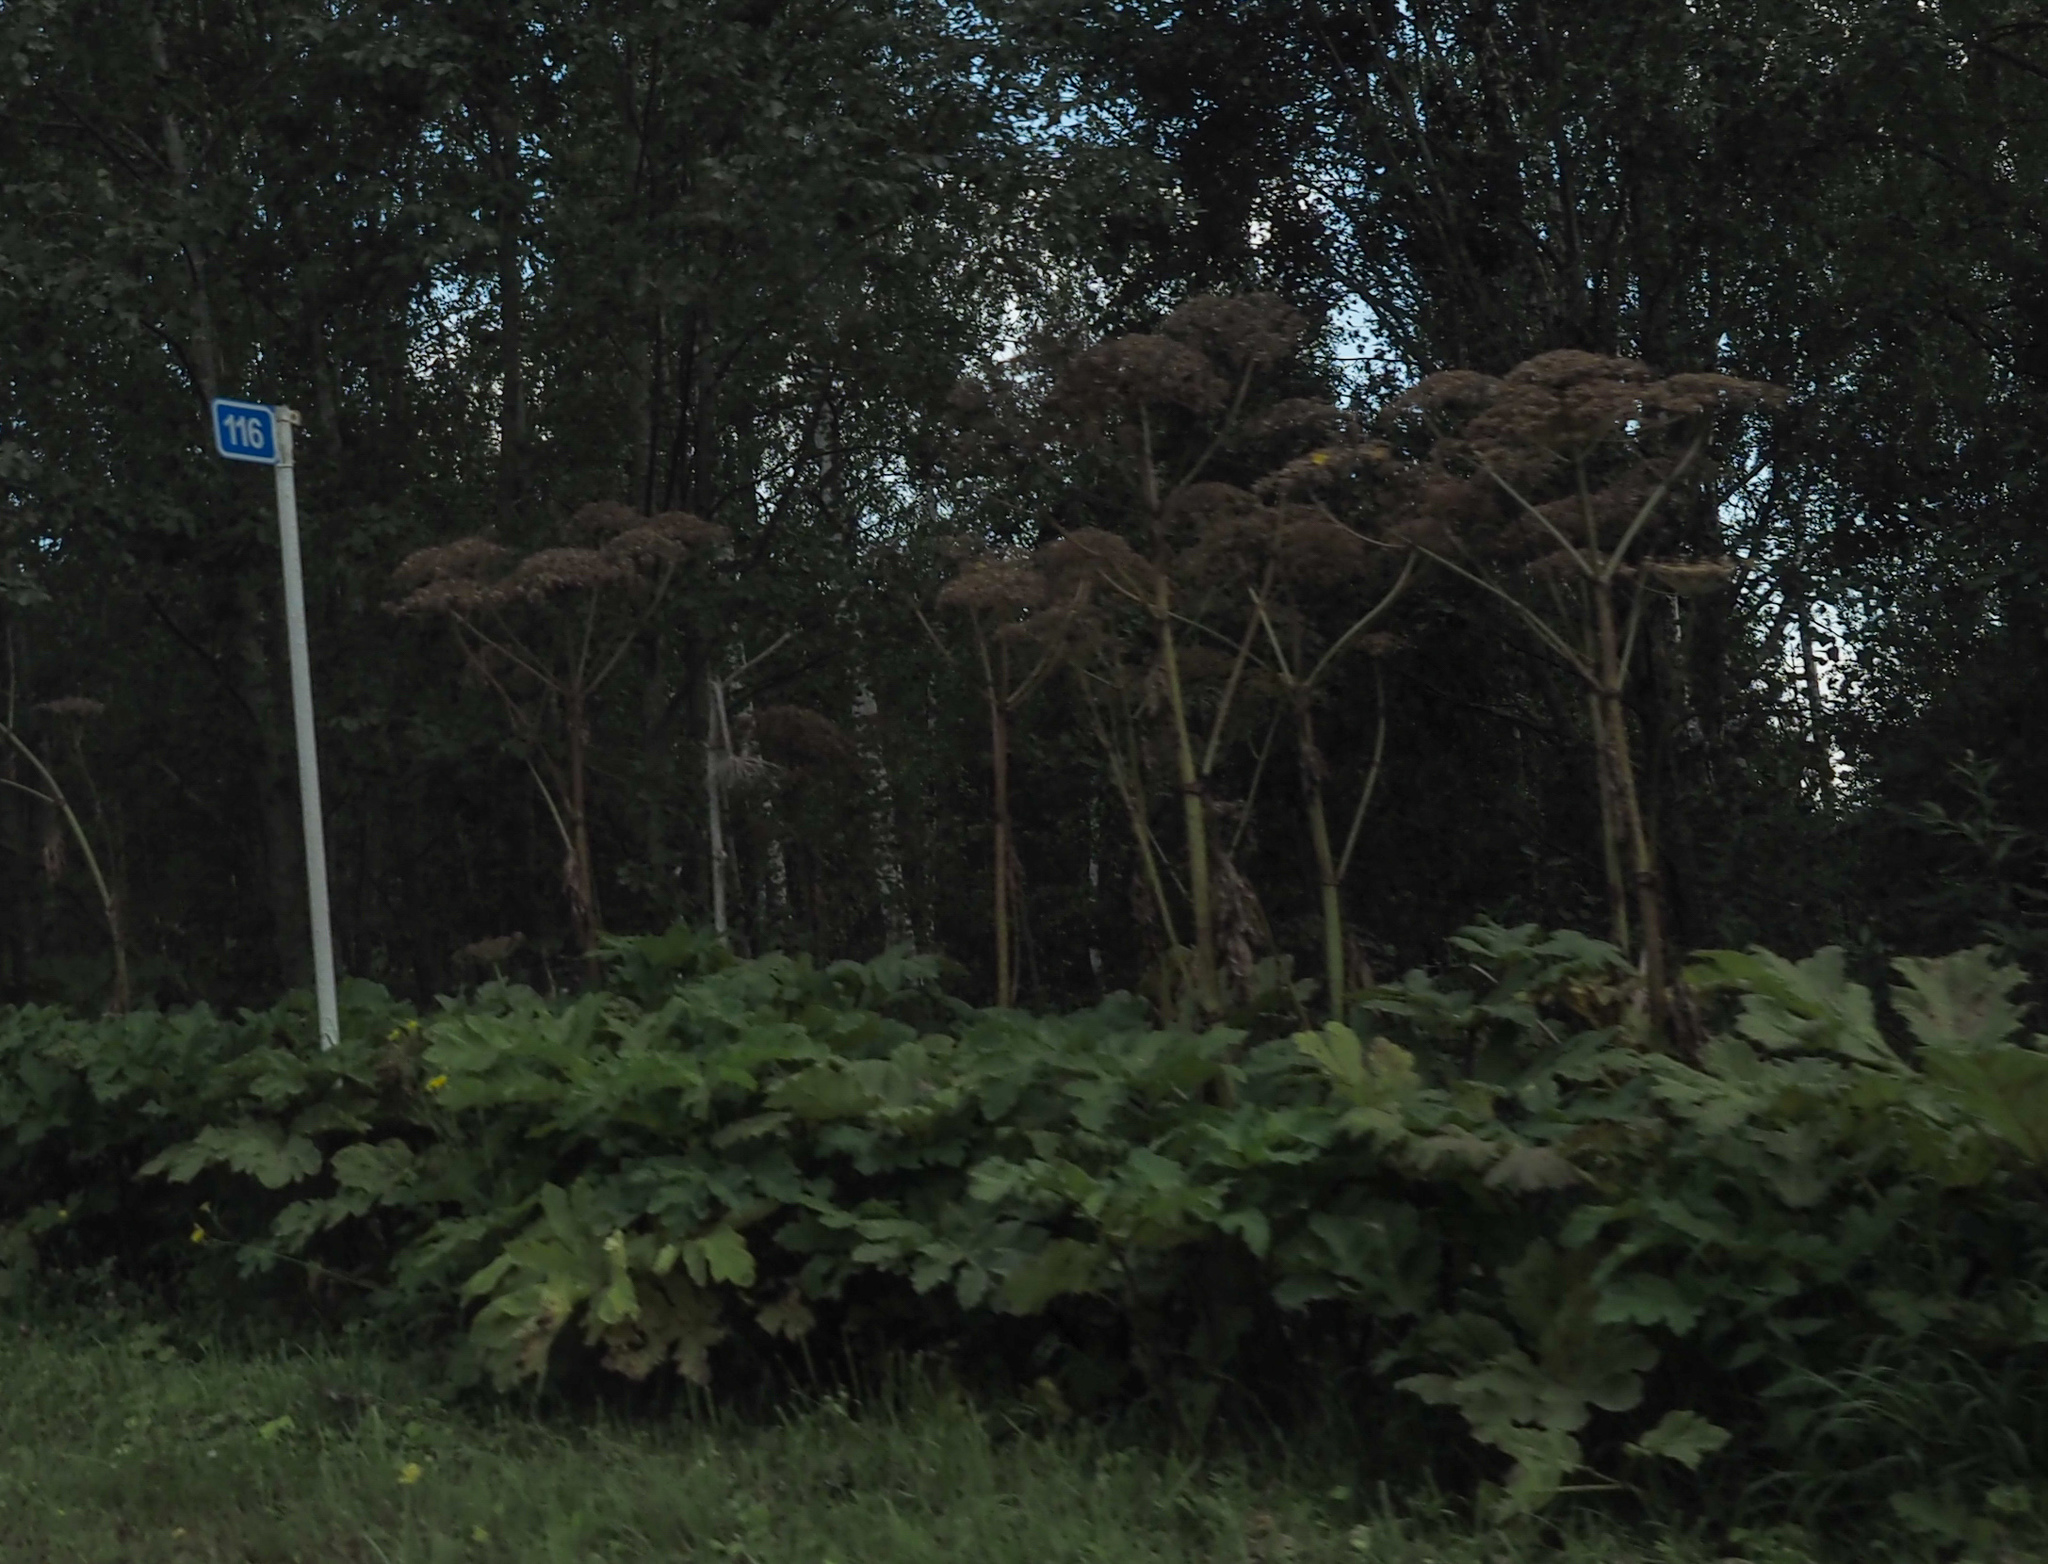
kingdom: Plantae
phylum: Tracheophyta
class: Magnoliopsida
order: Apiales
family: Apiaceae
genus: Heracleum
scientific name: Heracleum sosnowskyi
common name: Sosnowsky's hogweed
